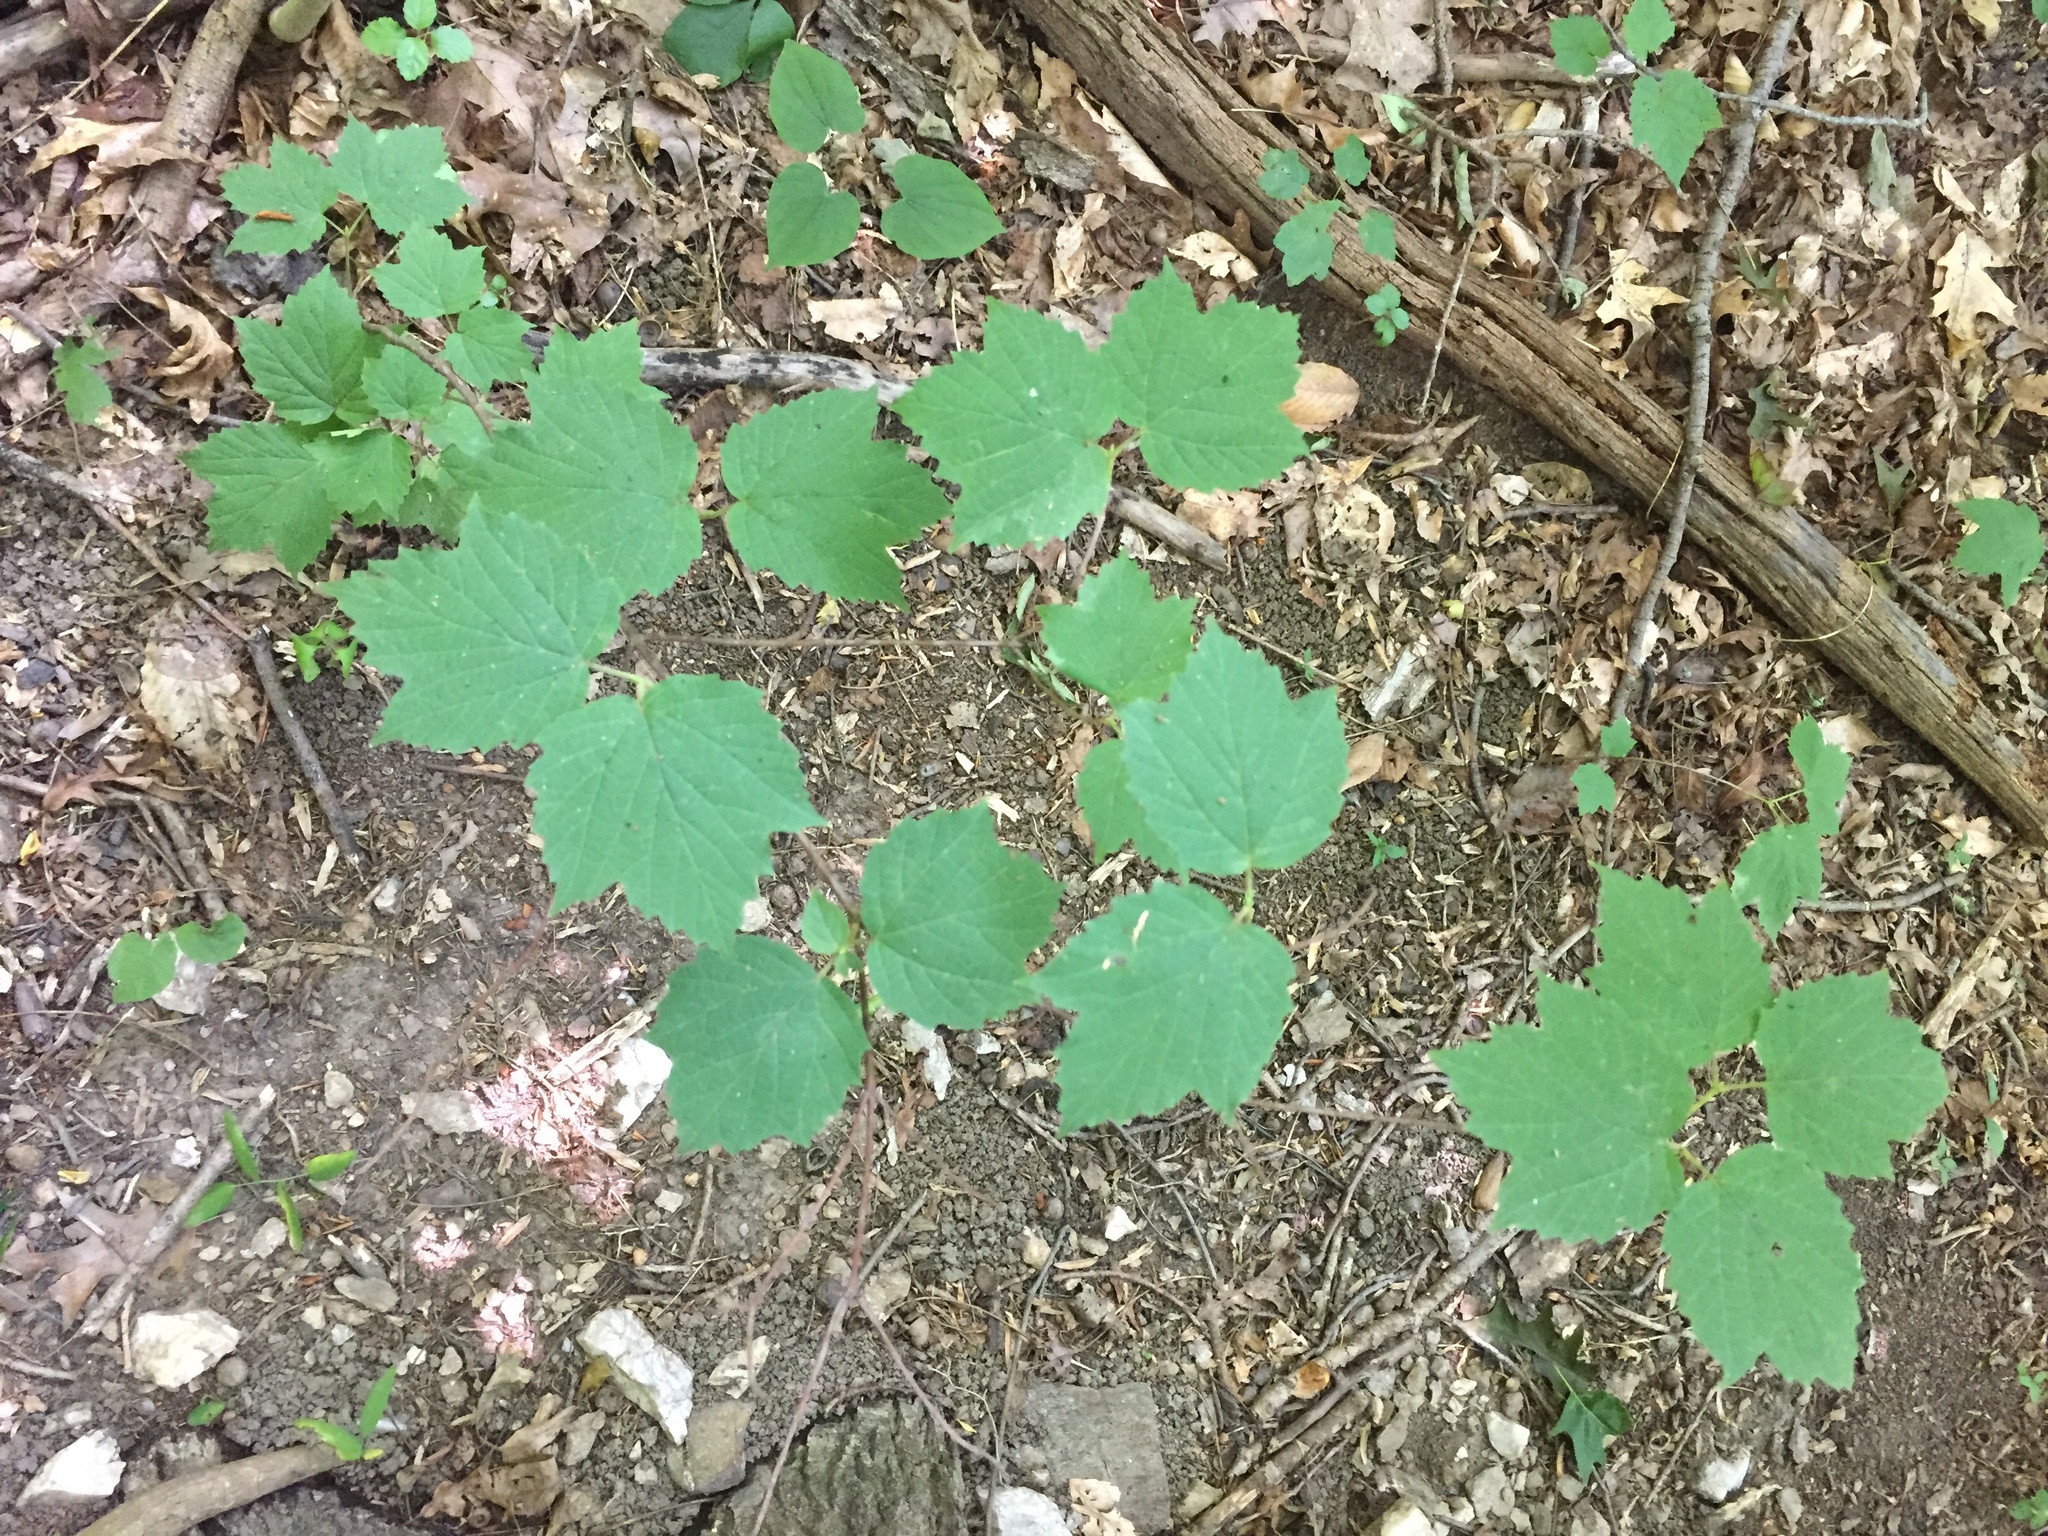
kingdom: Plantae
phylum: Tracheophyta
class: Magnoliopsida
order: Dipsacales
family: Viburnaceae
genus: Viburnum
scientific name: Viburnum acerifolium
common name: Dockmackie
